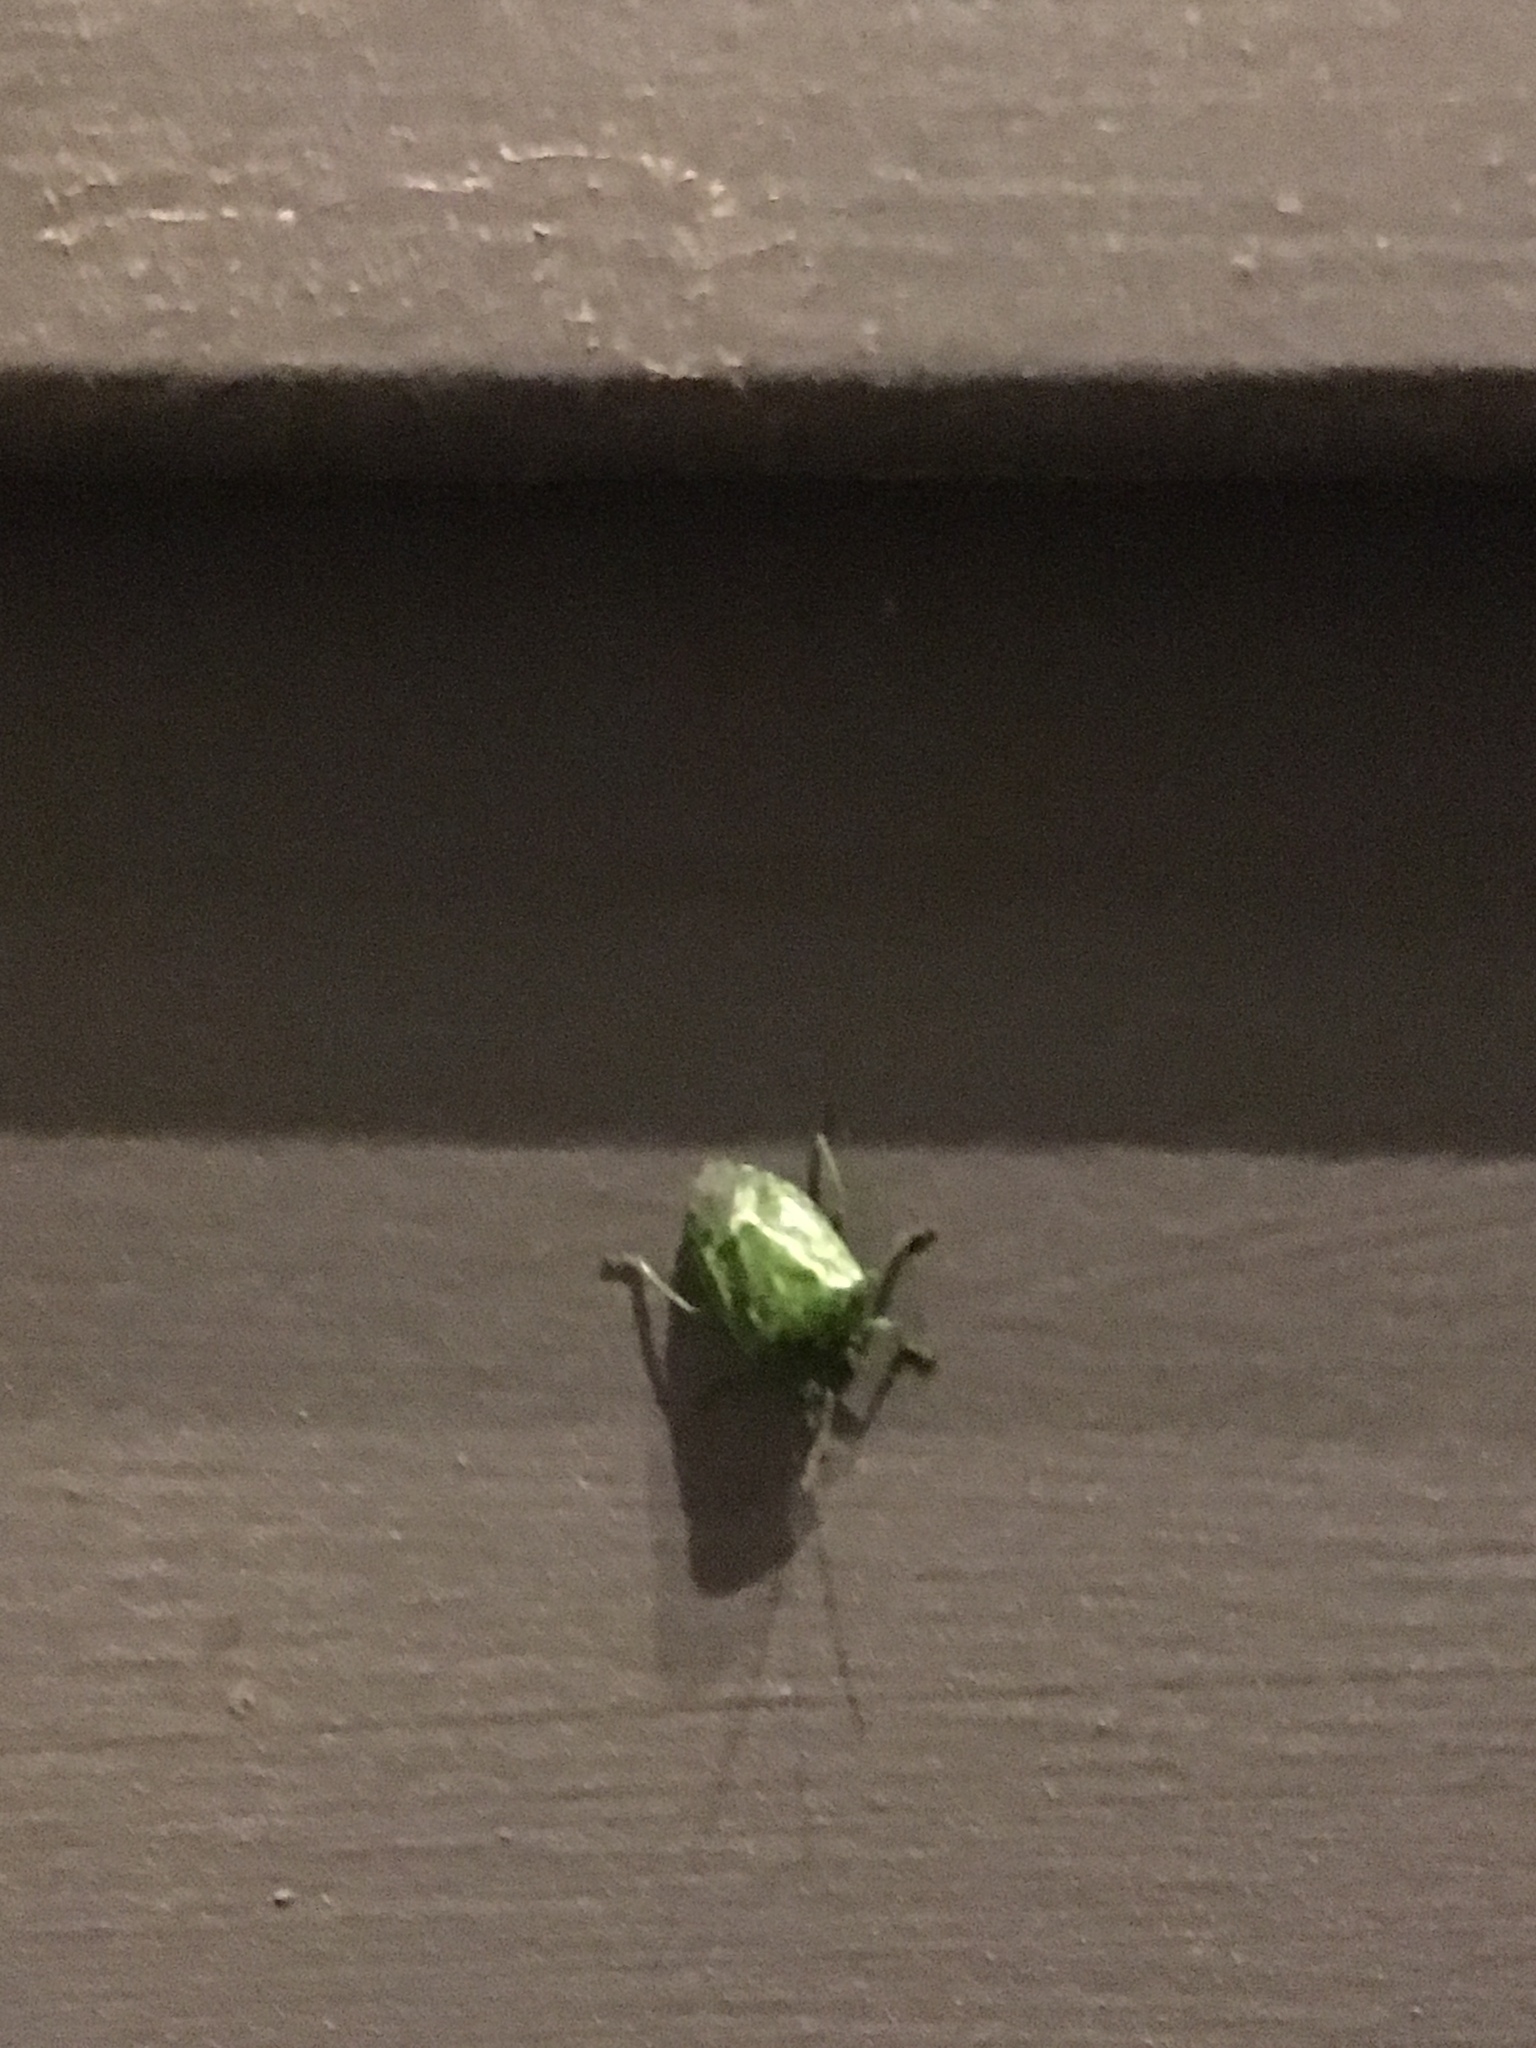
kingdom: Animalia
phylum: Arthropoda
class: Insecta
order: Hemiptera
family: Pentatomidae
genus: Banasa
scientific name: Banasa euchlora
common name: Cedar berry bug
